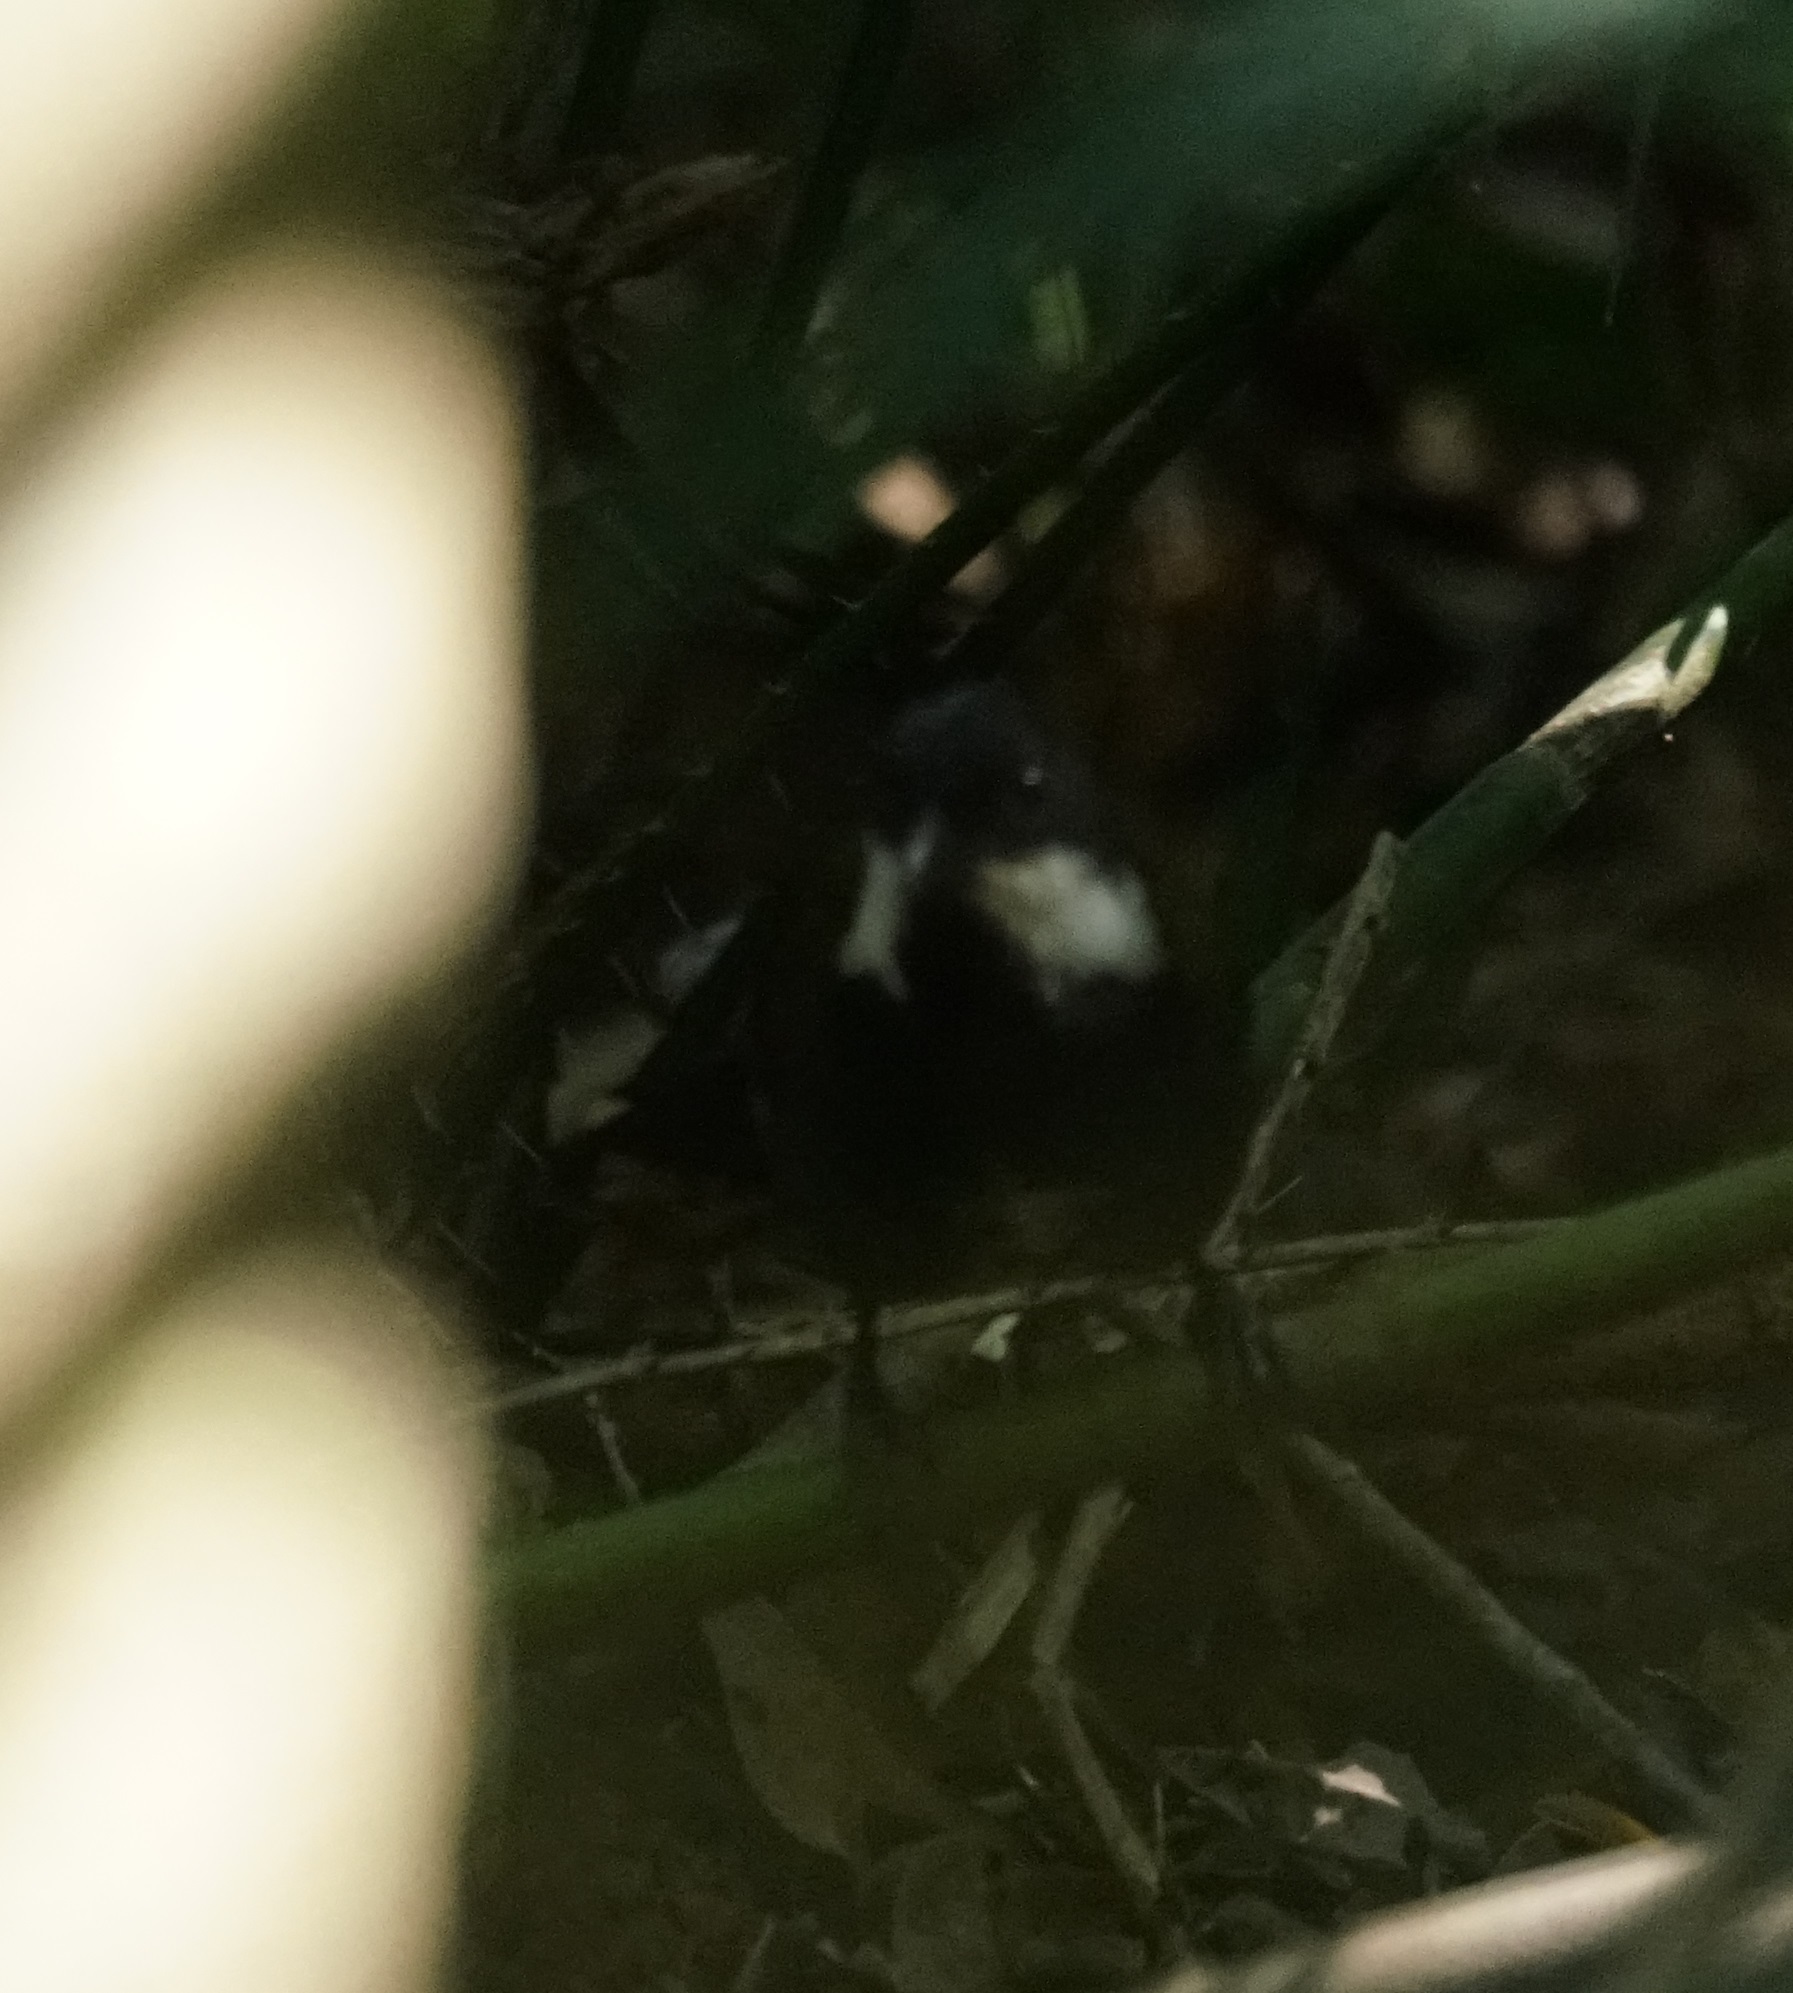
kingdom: Animalia
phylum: Chordata
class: Aves
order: Passeriformes
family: Psophodidae
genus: Psophodes
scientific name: Psophodes olivaceus
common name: Eastern whipbird
